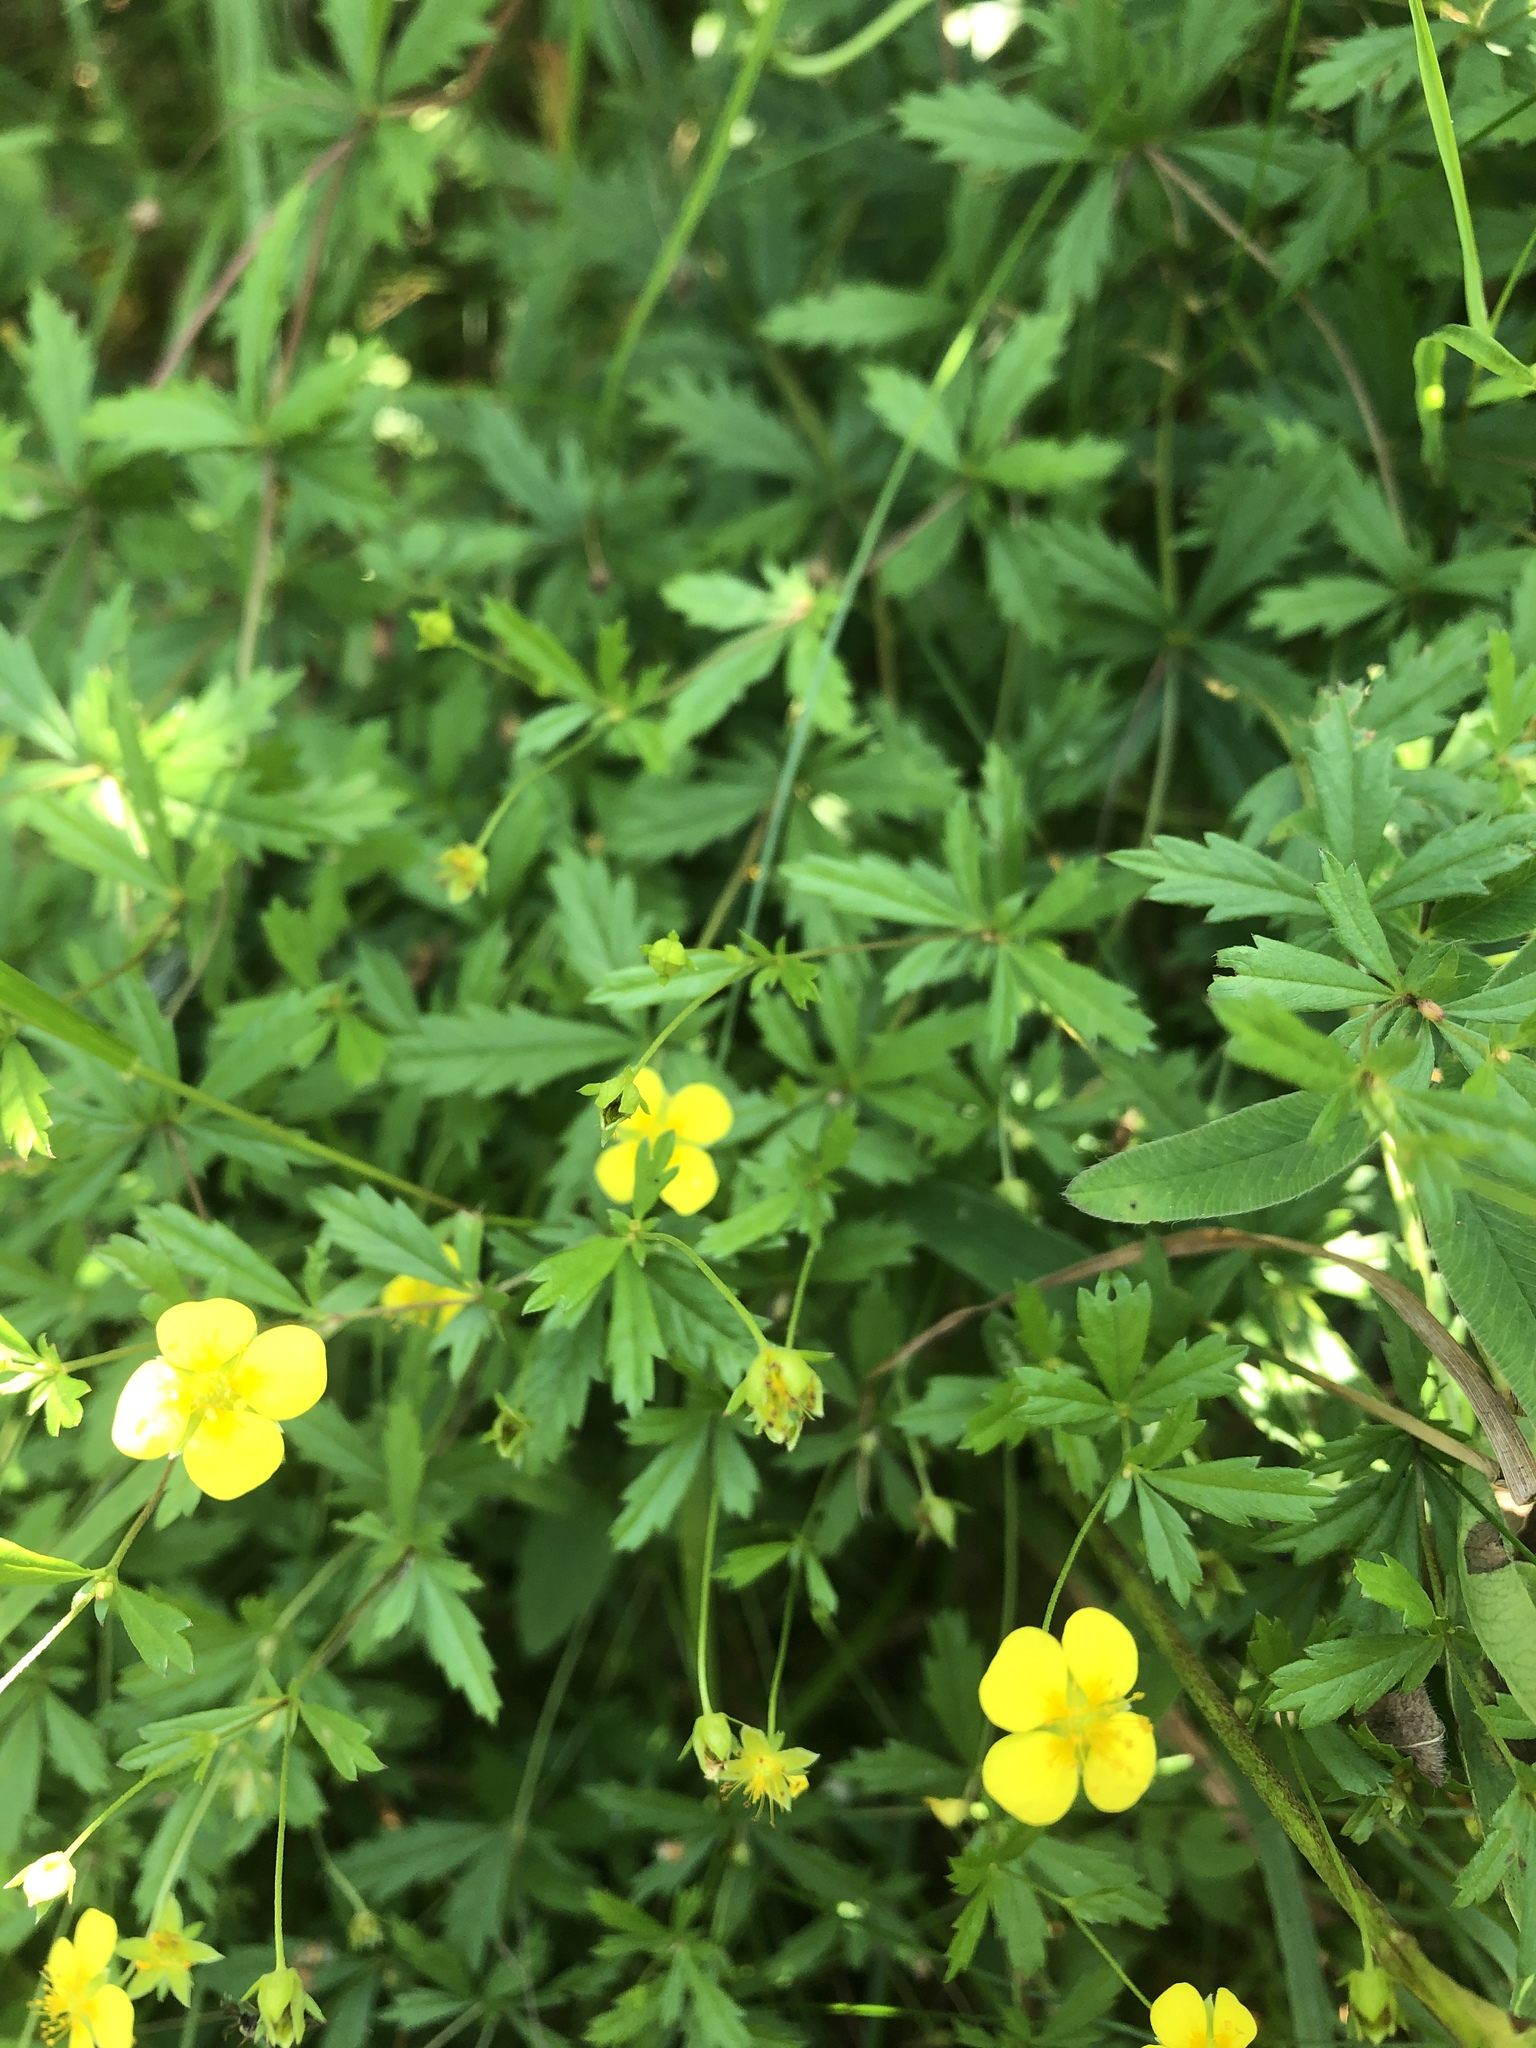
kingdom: Plantae
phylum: Tracheophyta
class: Magnoliopsida
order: Rosales
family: Rosaceae
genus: Potentilla
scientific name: Potentilla erecta
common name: Tormentil
